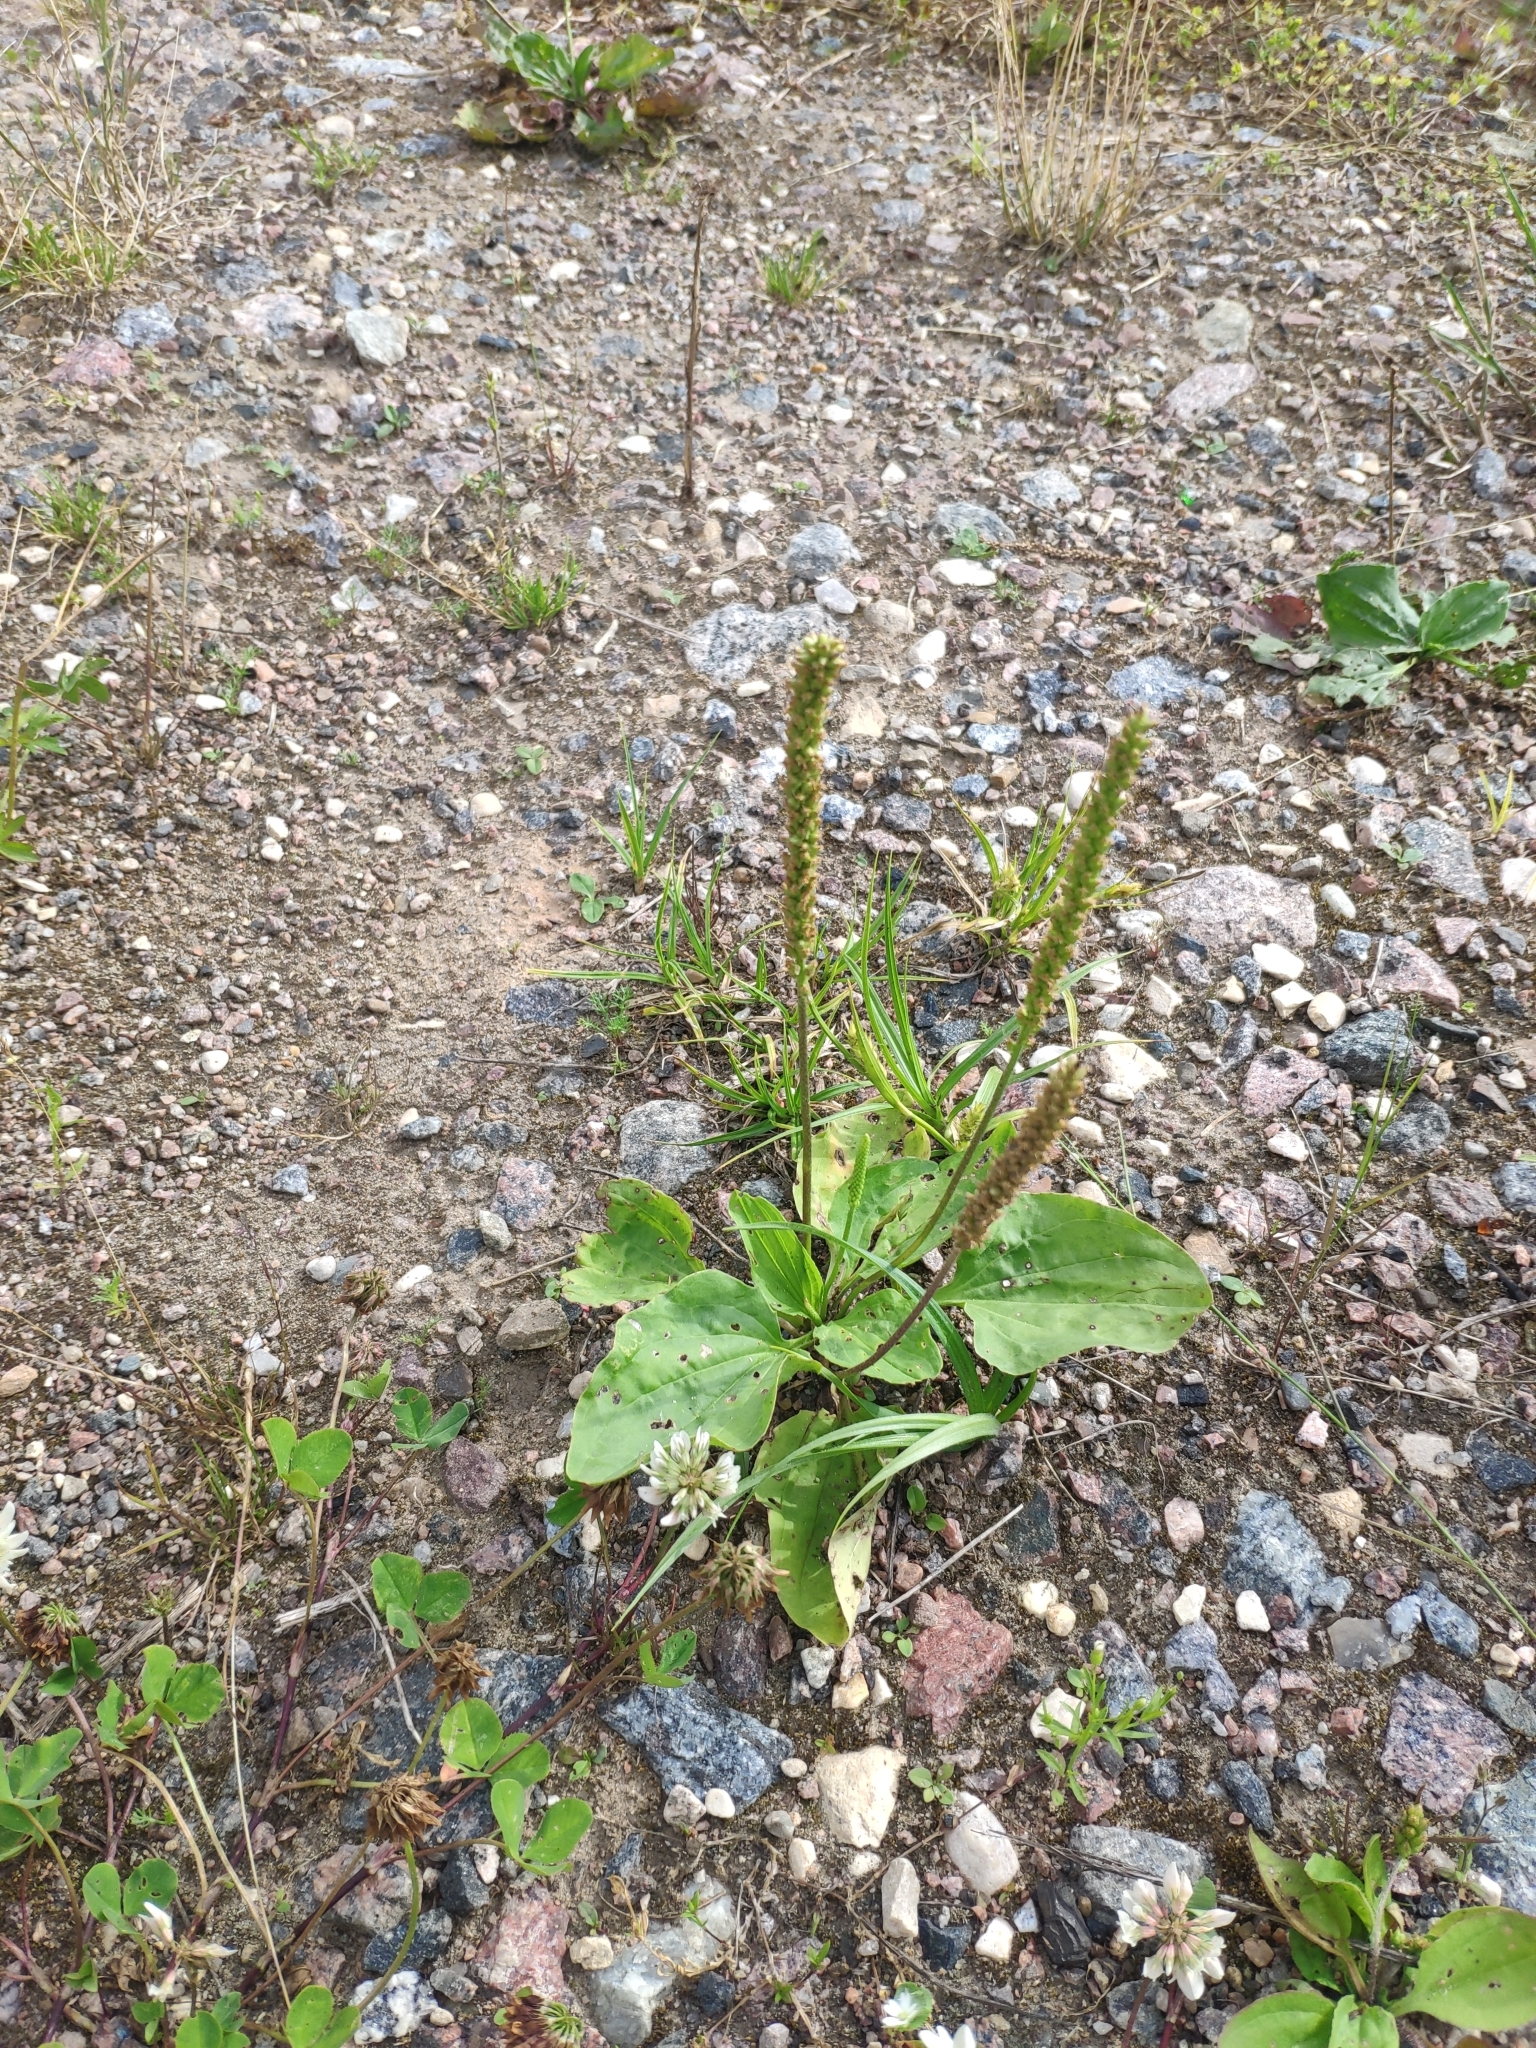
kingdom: Plantae
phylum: Tracheophyta
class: Magnoliopsida
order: Lamiales
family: Plantaginaceae
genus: Plantago
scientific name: Plantago media
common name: Hoary plantain
